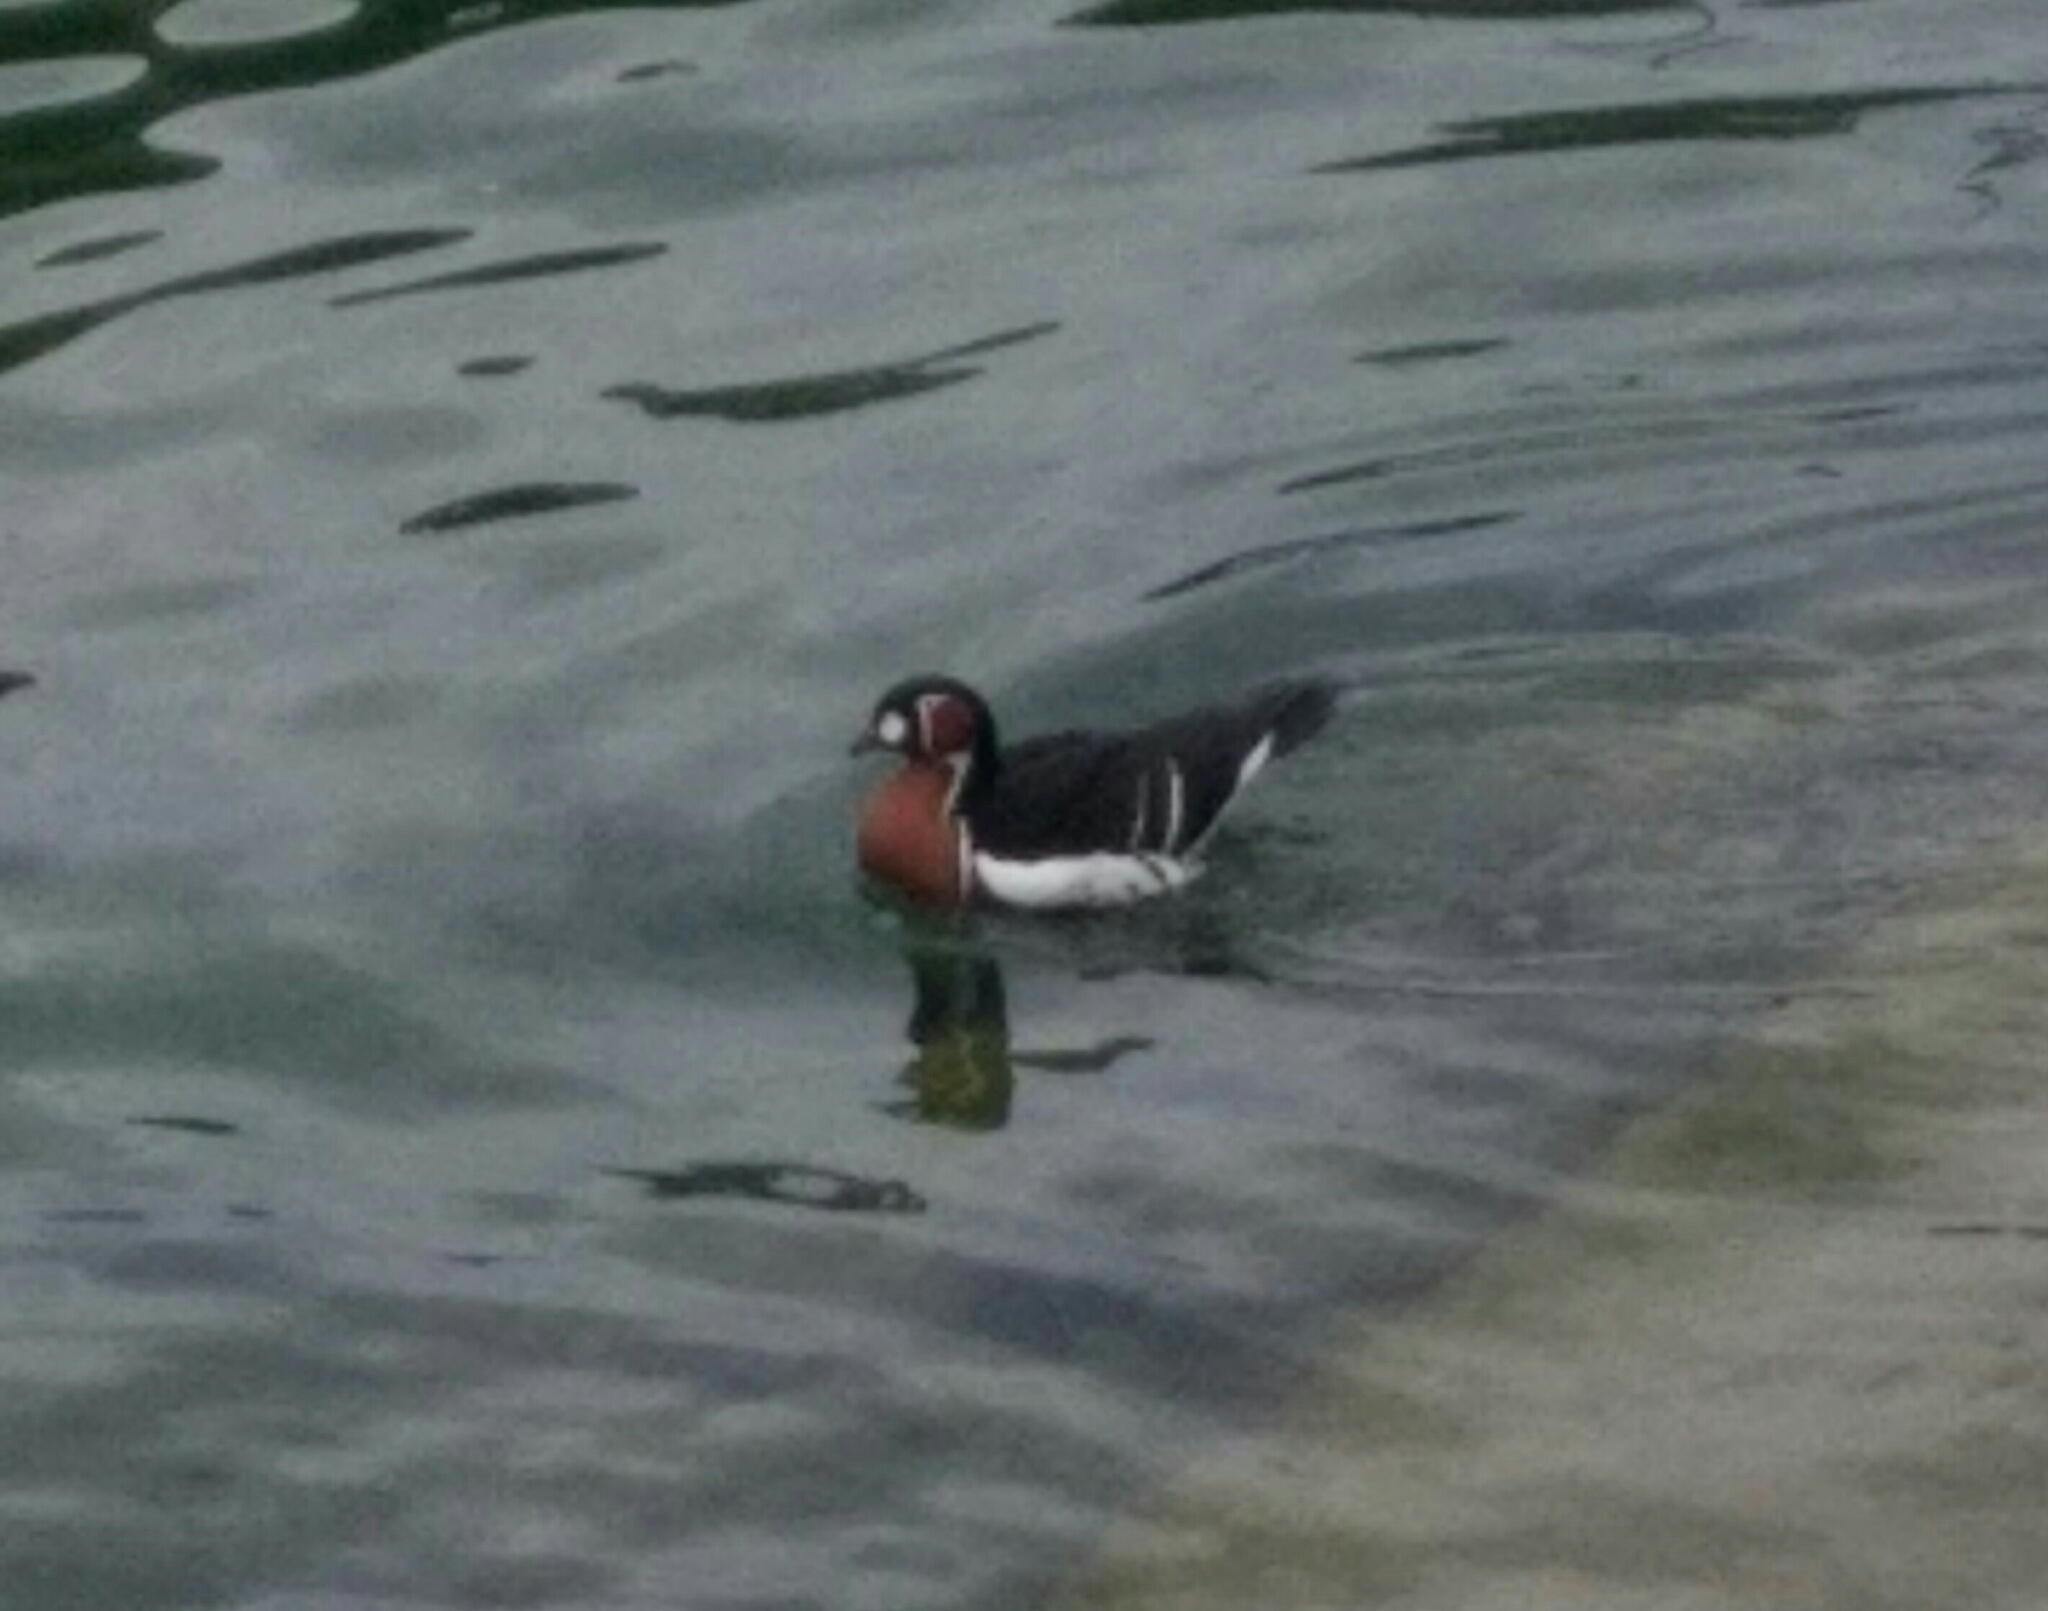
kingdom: Animalia
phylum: Chordata
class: Aves
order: Anseriformes
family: Anatidae
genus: Branta
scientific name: Branta ruficollis
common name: Red-breasted goose
